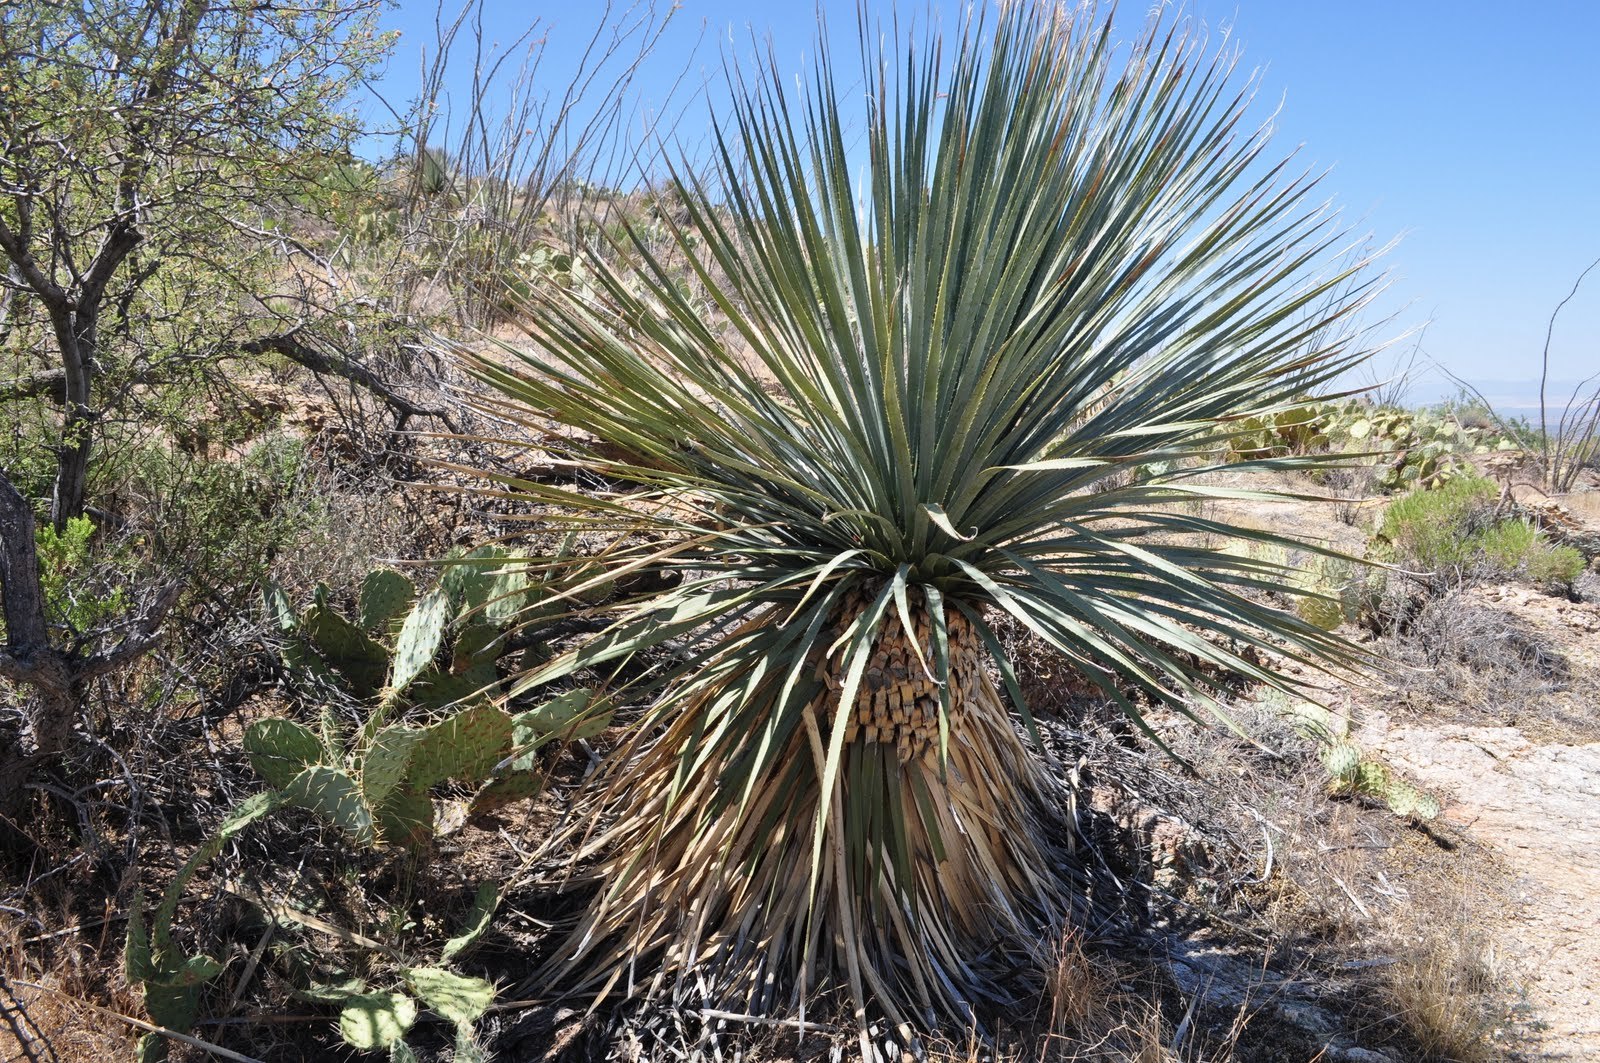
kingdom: Plantae
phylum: Tracheophyta
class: Liliopsida
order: Asparagales
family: Asparagaceae
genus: Dasylirion
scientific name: Dasylirion wheeleri
